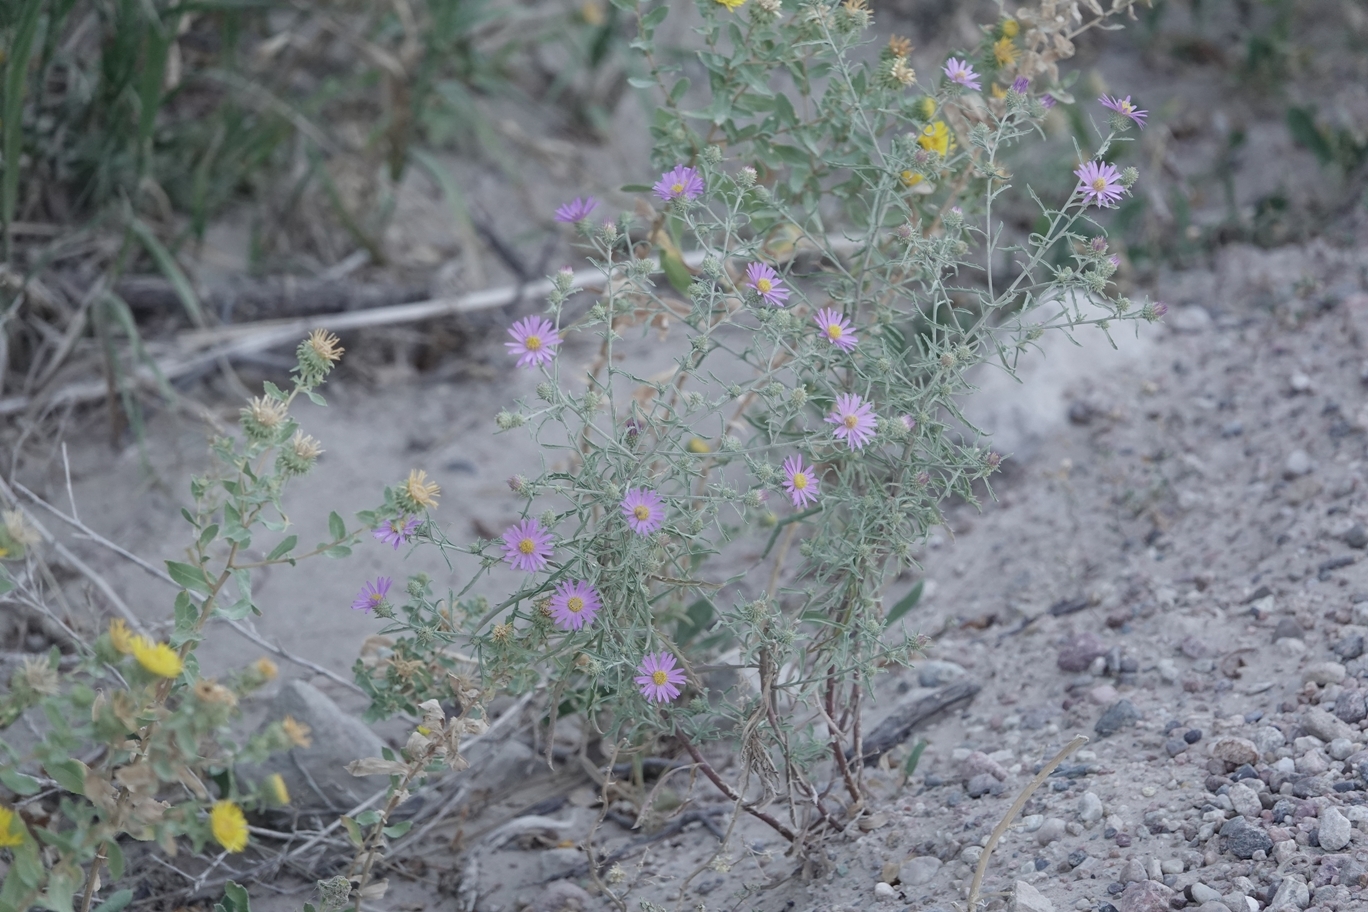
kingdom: Plantae
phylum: Tracheophyta
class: Magnoliopsida
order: Asterales
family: Asteraceae
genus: Dieteria
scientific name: Dieteria canescens
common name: Hoary-aster
